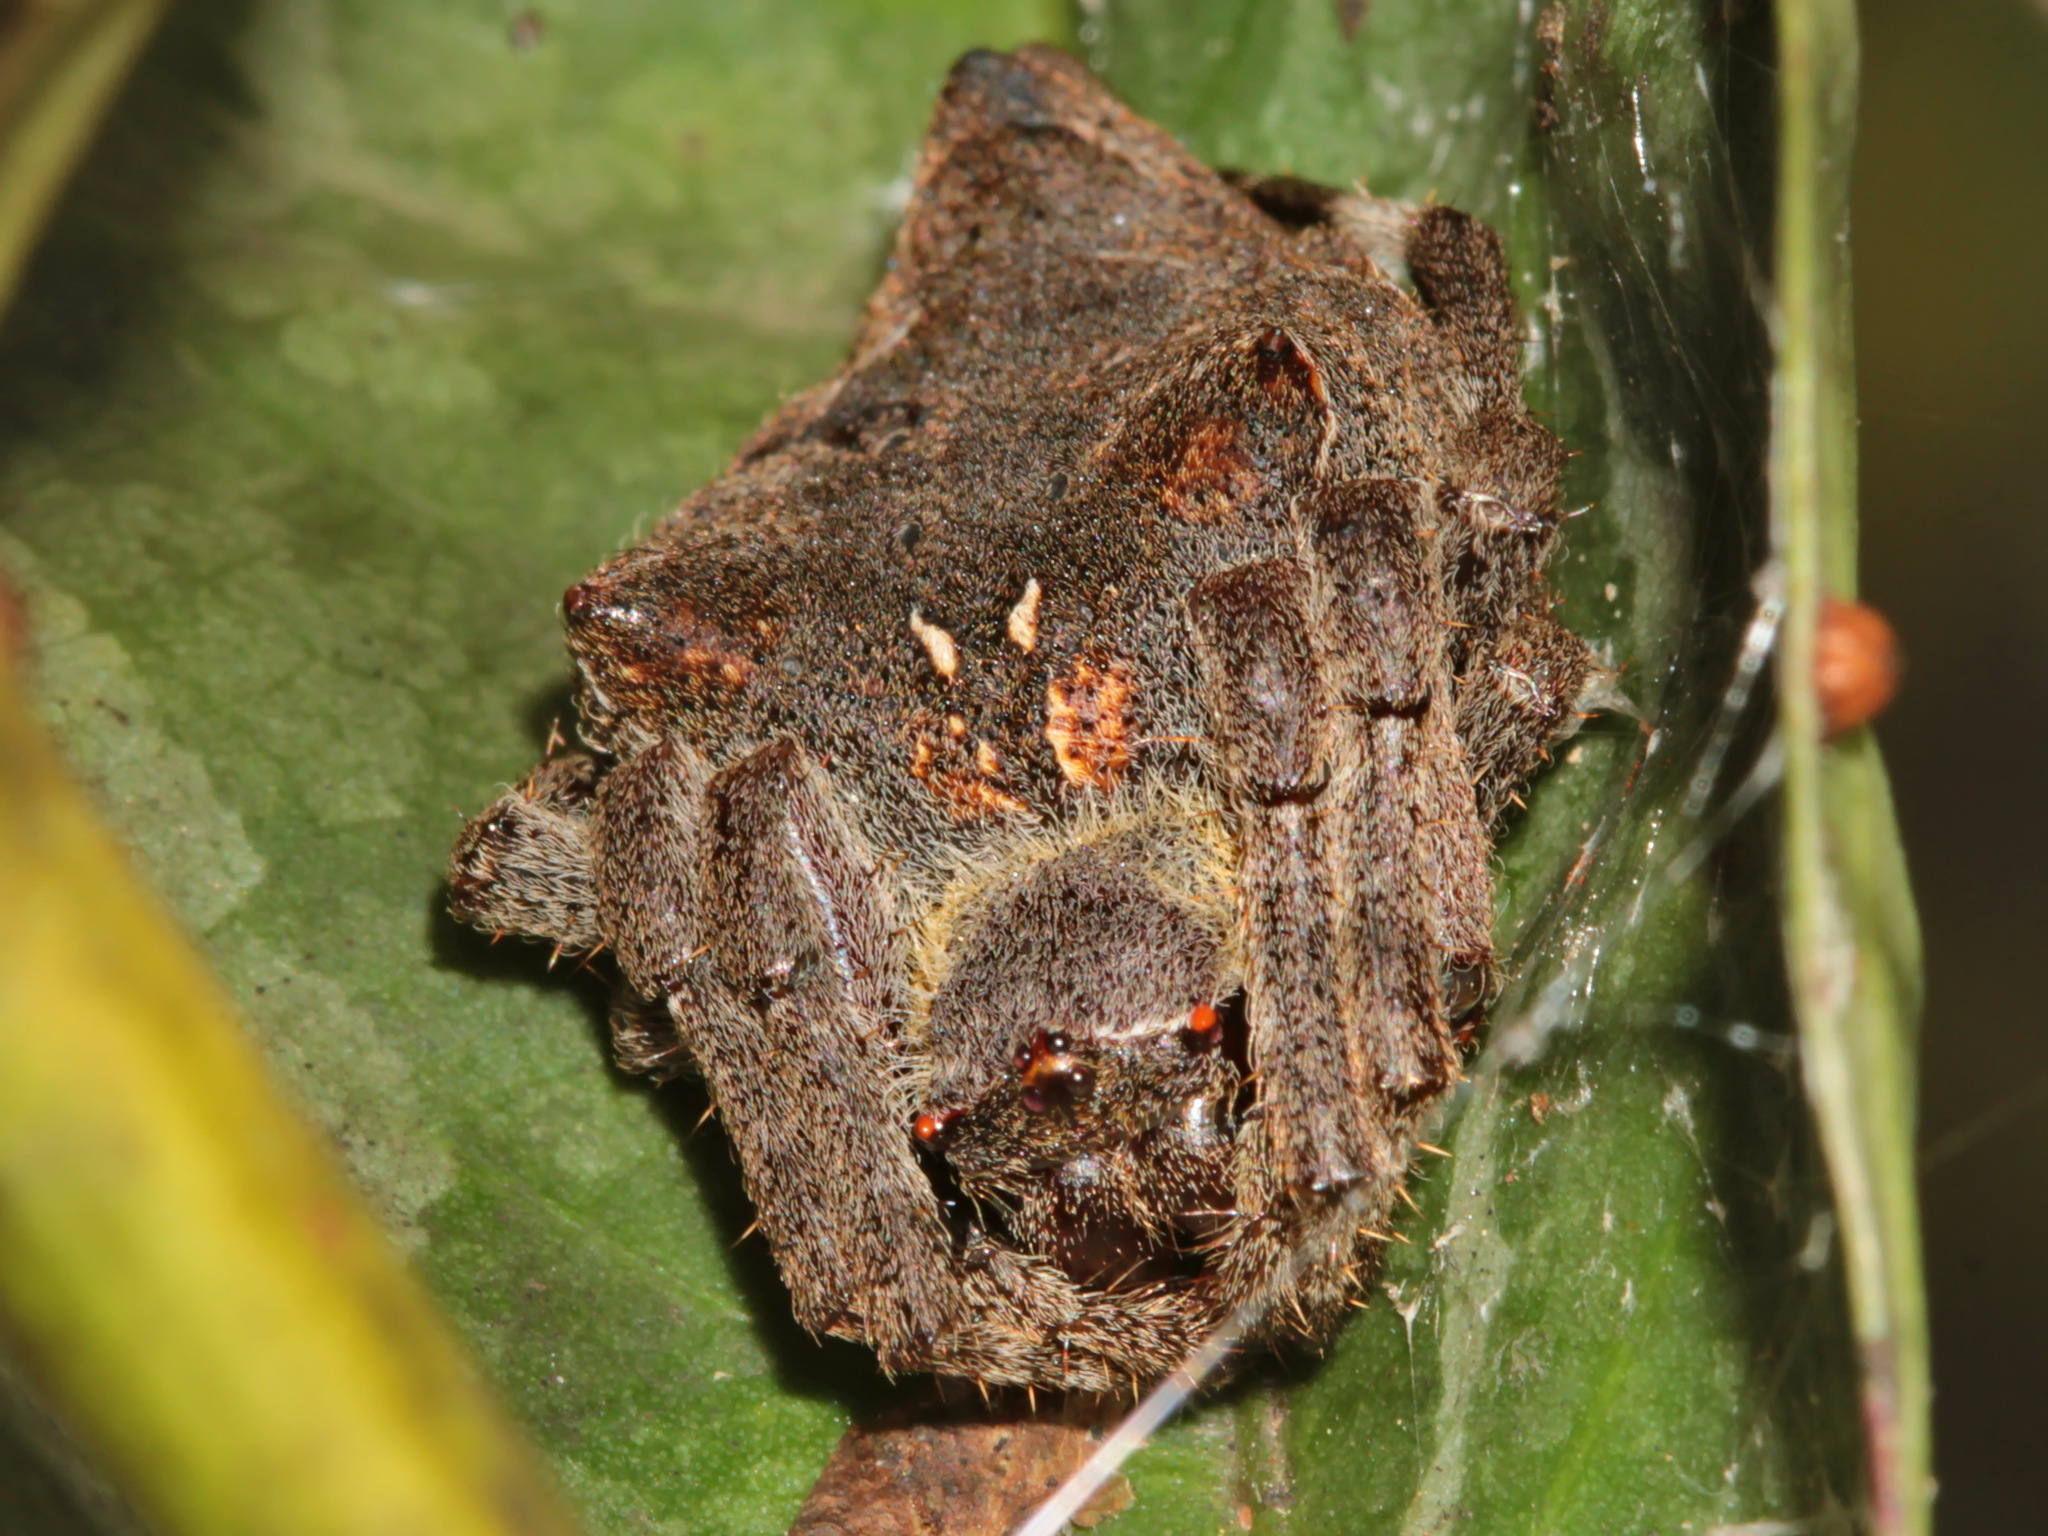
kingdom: Animalia
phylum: Arthropoda
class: Arachnida
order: Araneae
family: Araneidae
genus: Parawixia
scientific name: Parawixia dehaani
